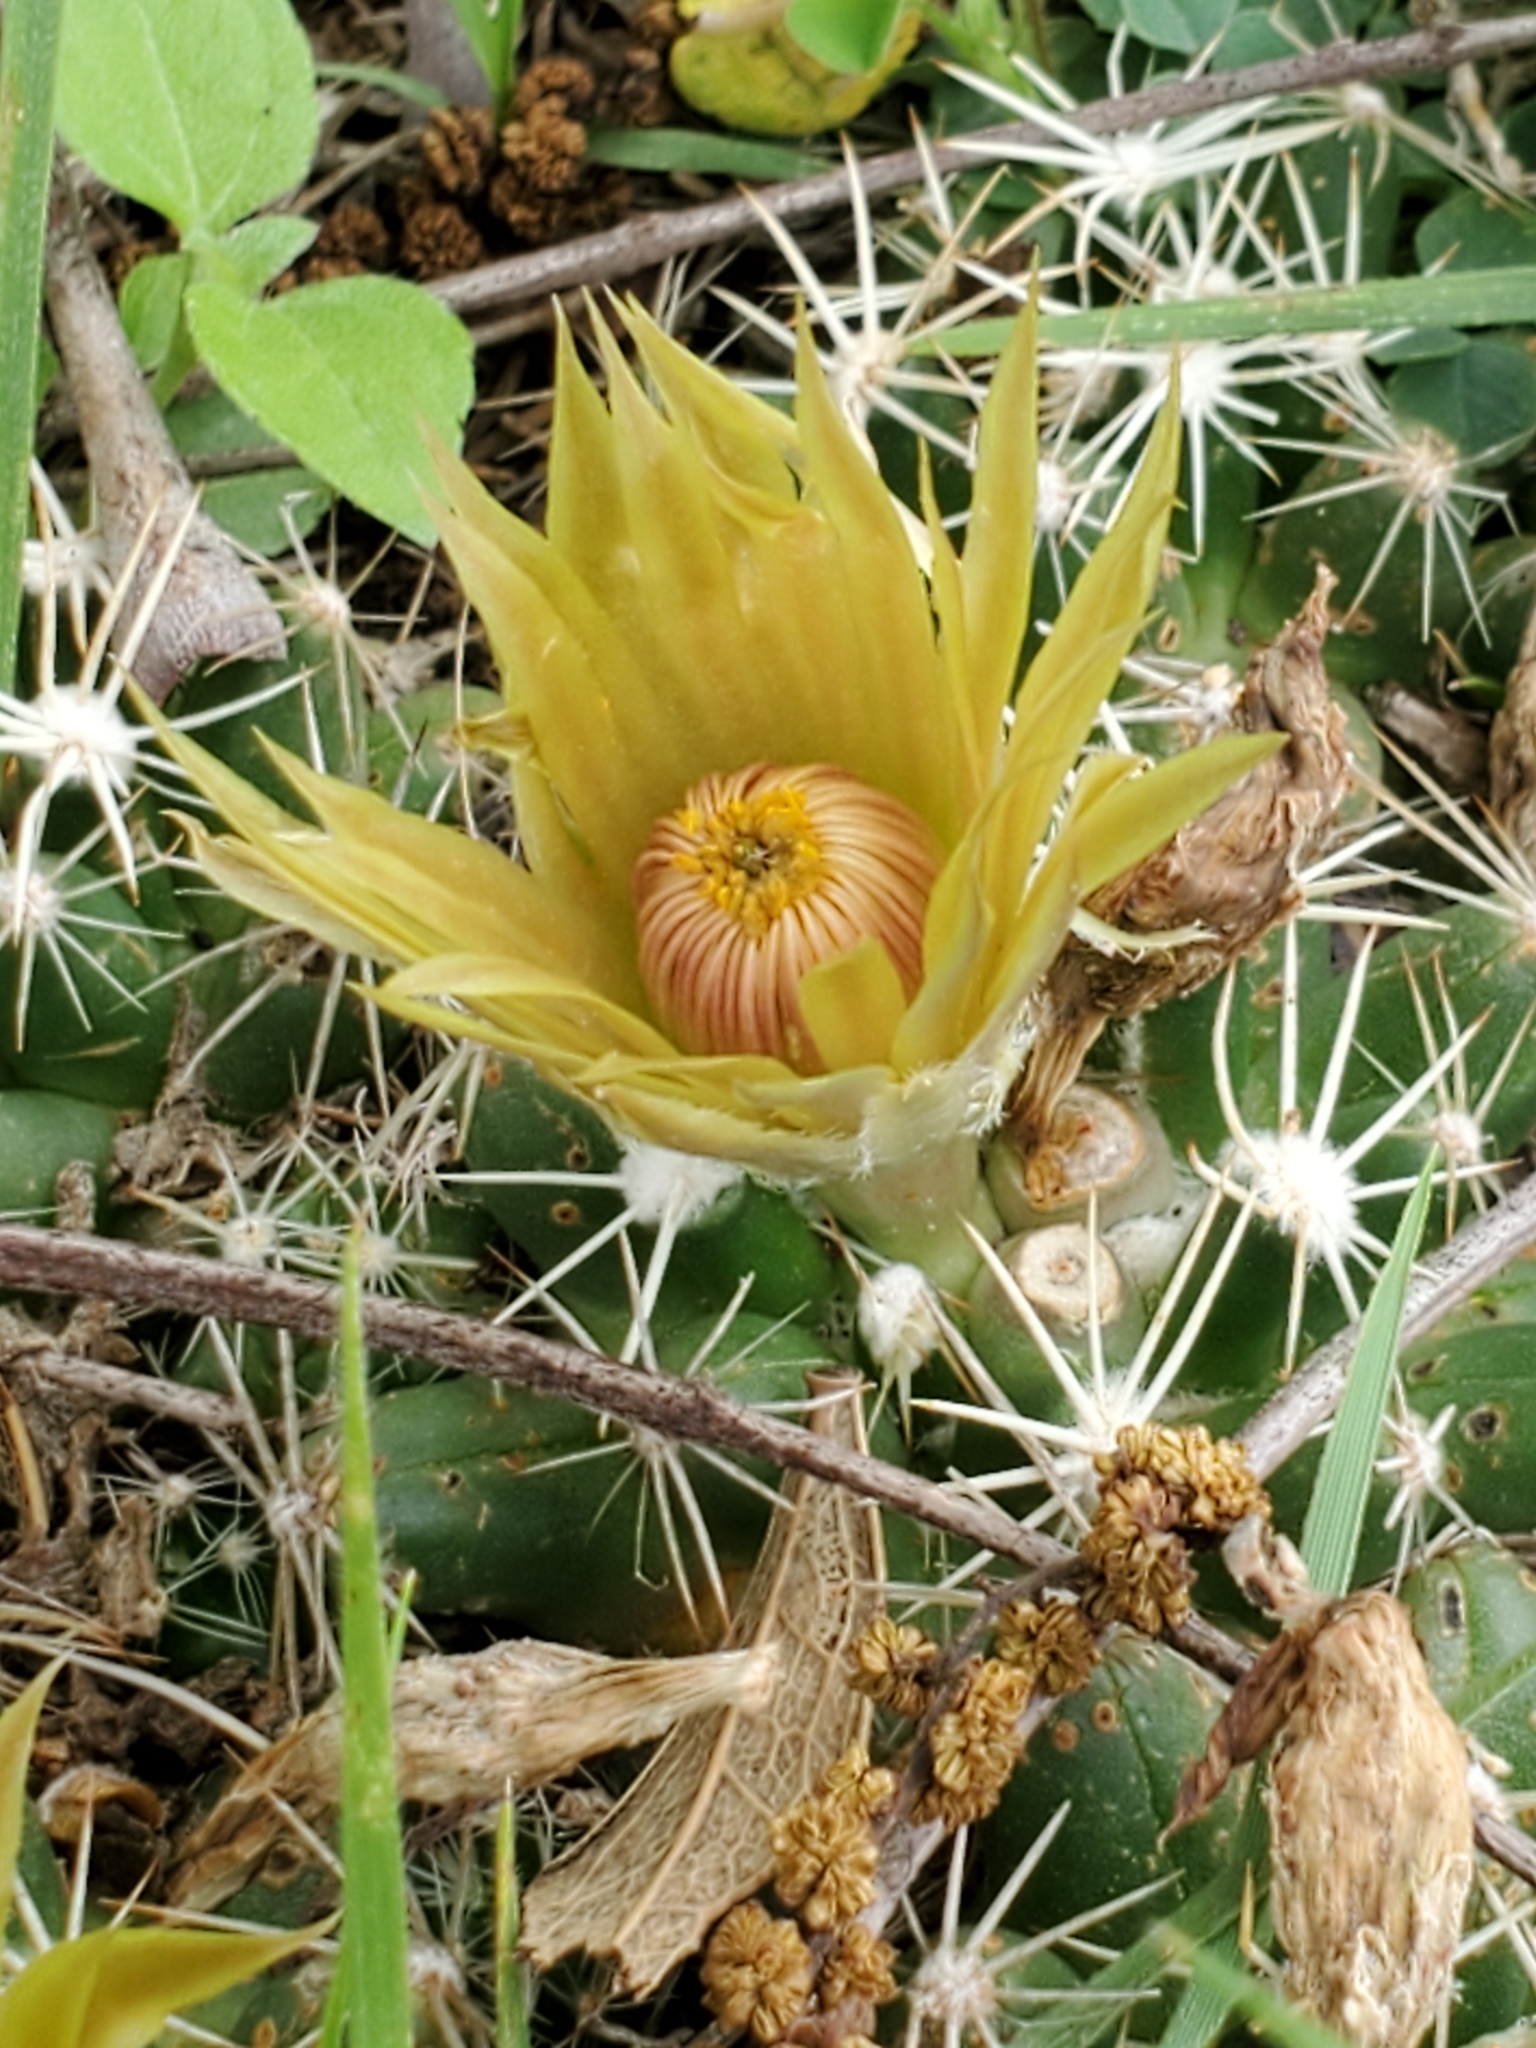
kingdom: Plantae
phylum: Tracheophyta
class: Magnoliopsida
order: Caryophyllales
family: Cactaceae
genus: Pelecyphora
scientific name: Pelecyphora missouriensis
